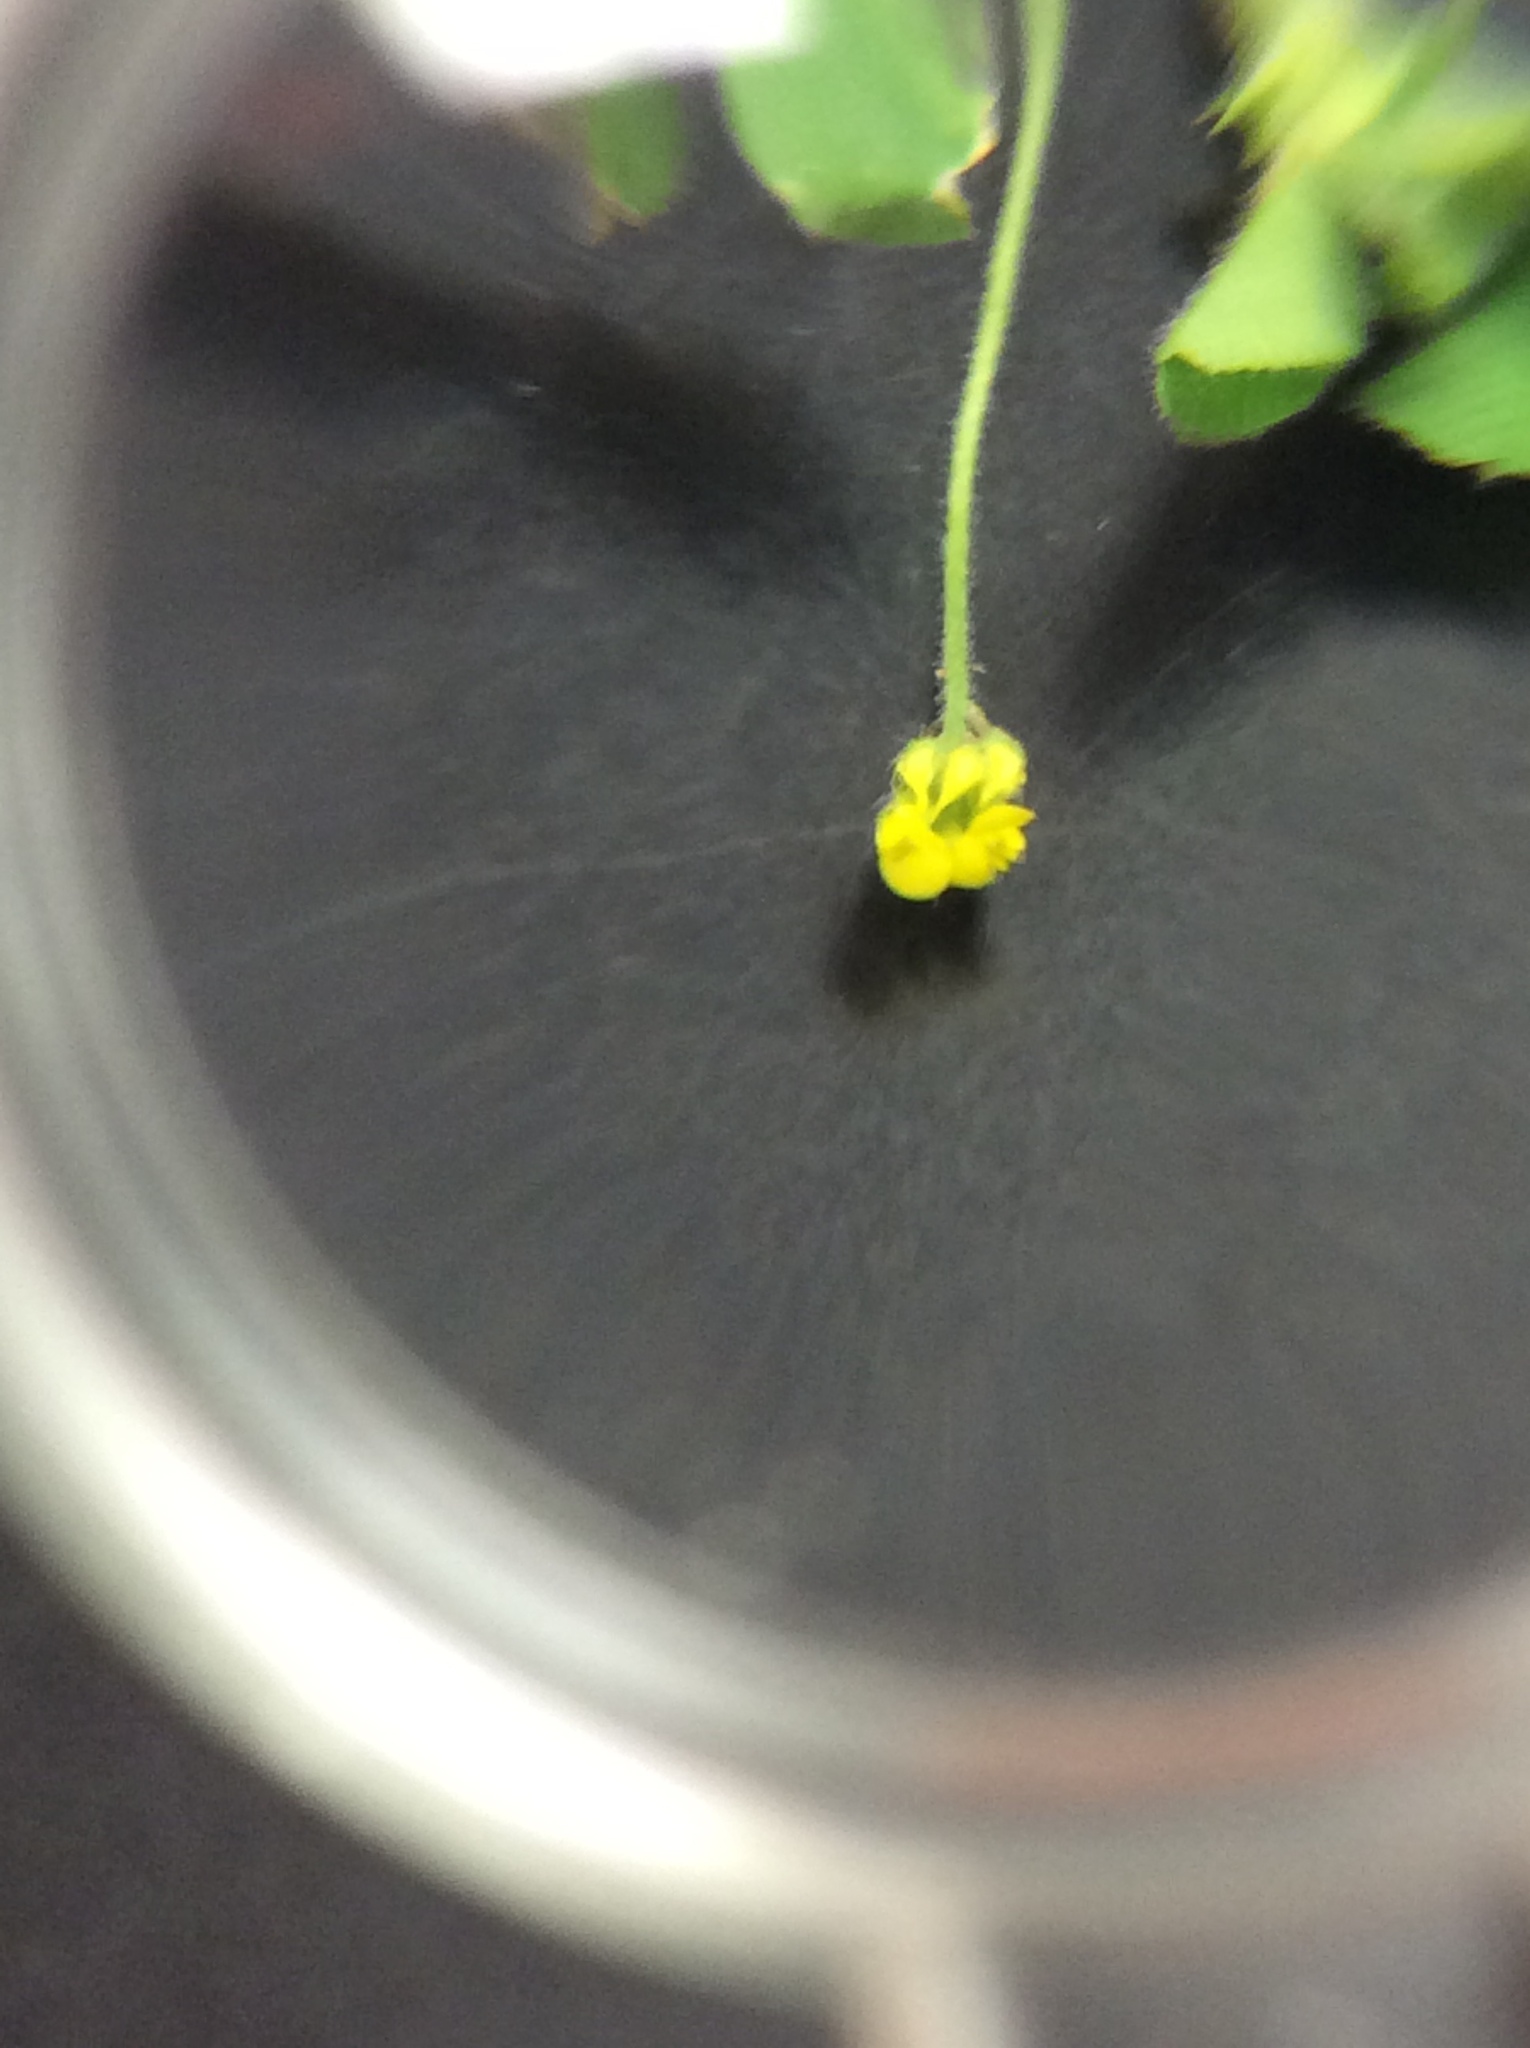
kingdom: Plantae
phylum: Tracheophyta
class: Magnoliopsida
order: Fabales
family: Fabaceae
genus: Medicago
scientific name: Medicago lupulina
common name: Black medick
